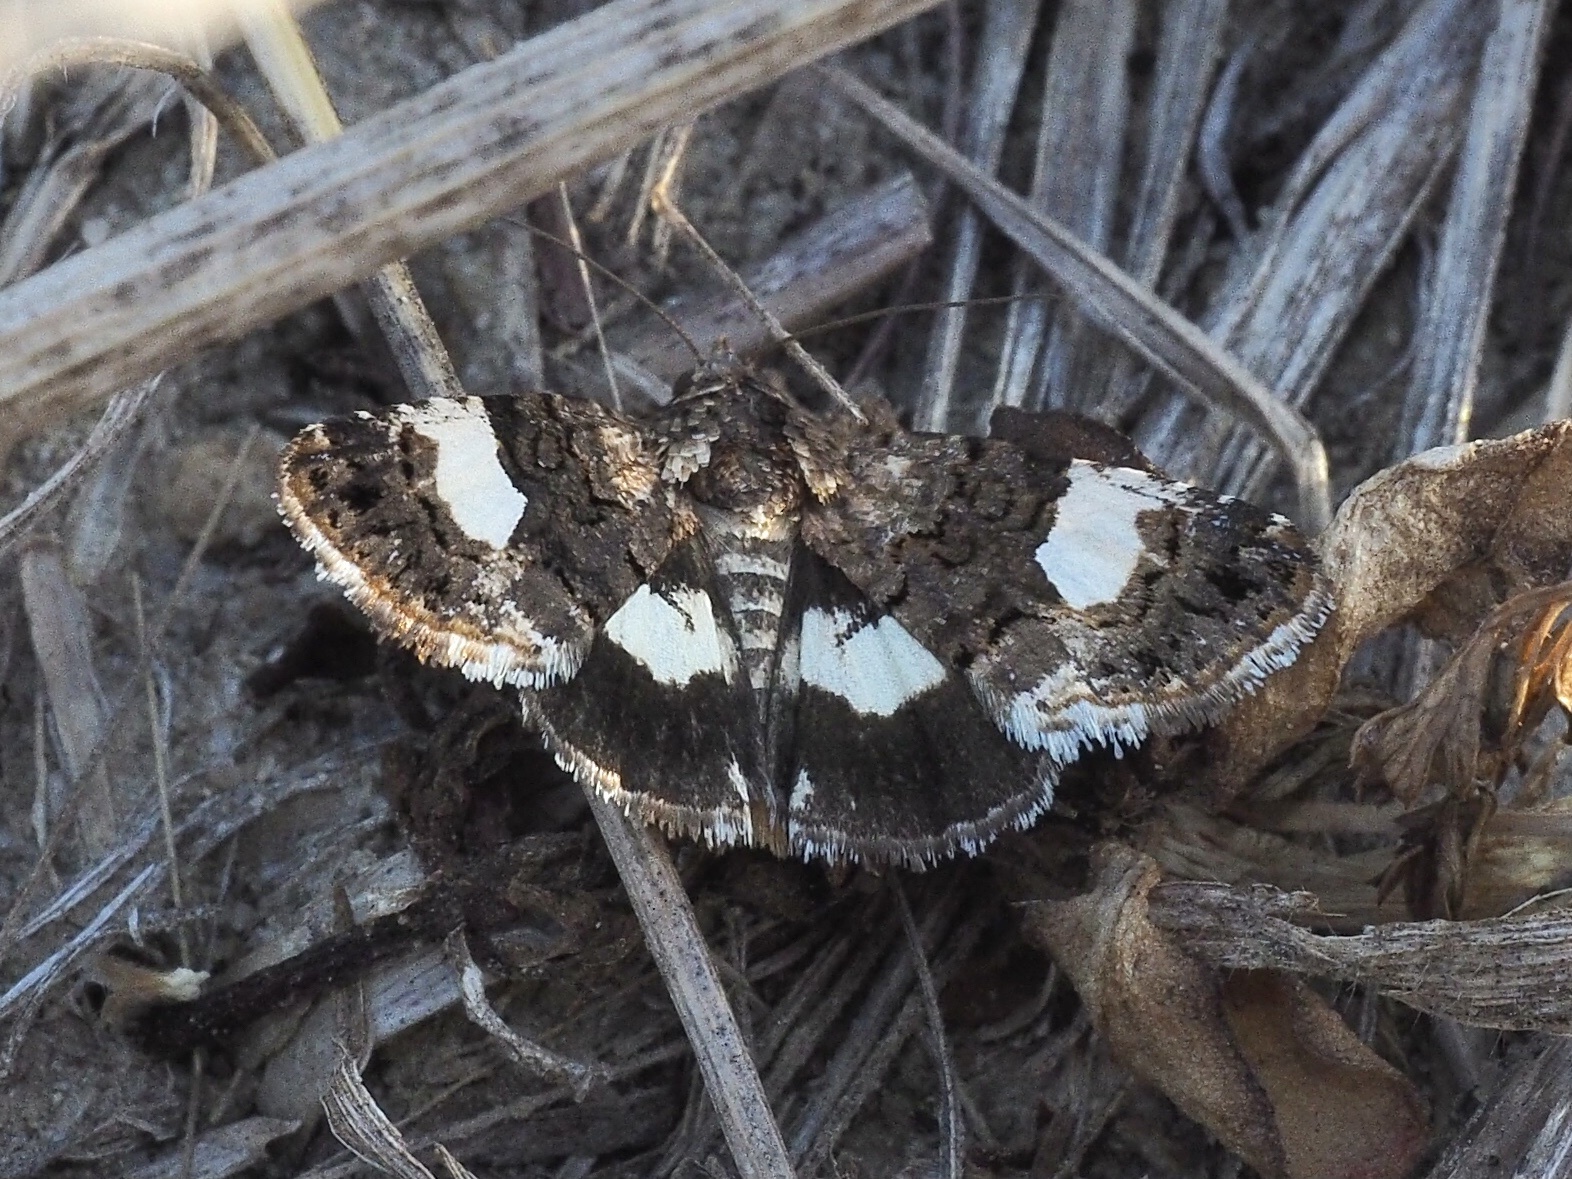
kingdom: Animalia
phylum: Arthropoda
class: Insecta
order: Lepidoptera
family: Erebidae
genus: Tyta
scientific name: Tyta luctuosa
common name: Four-spotted
